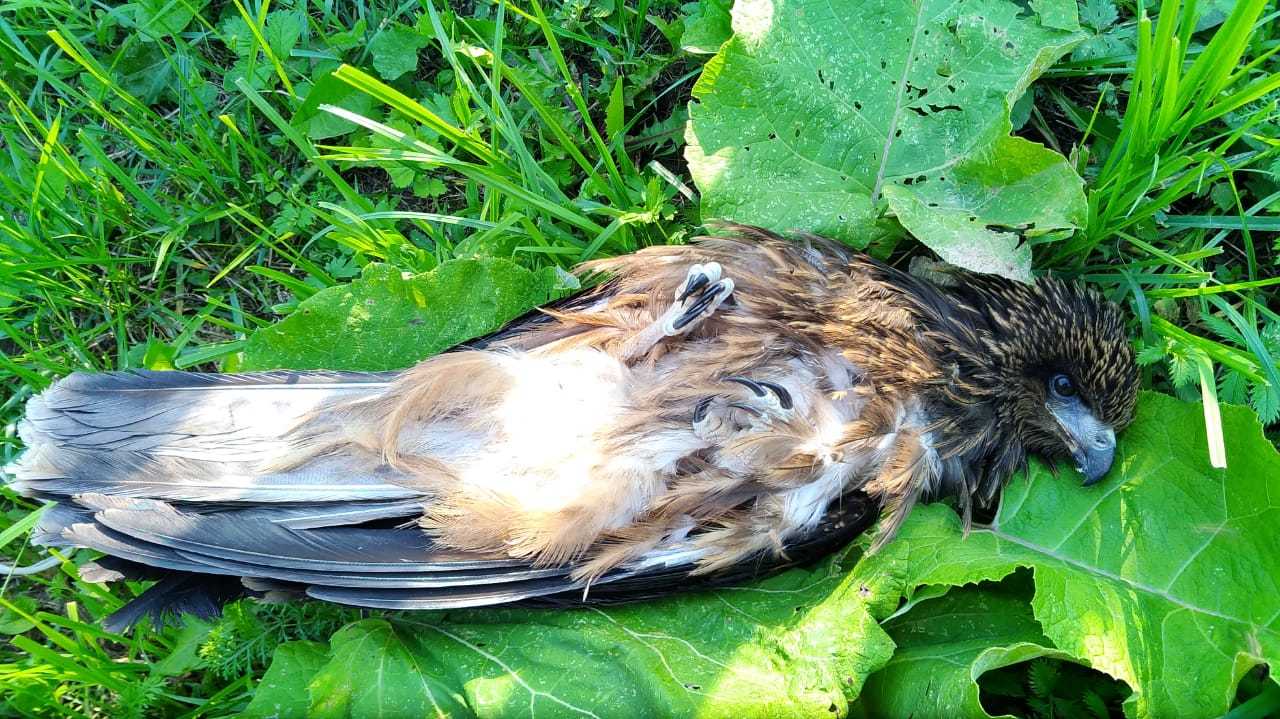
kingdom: Animalia
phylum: Chordata
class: Aves
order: Accipitriformes
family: Accipitridae
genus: Milvus
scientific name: Milvus migrans
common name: Black kite
